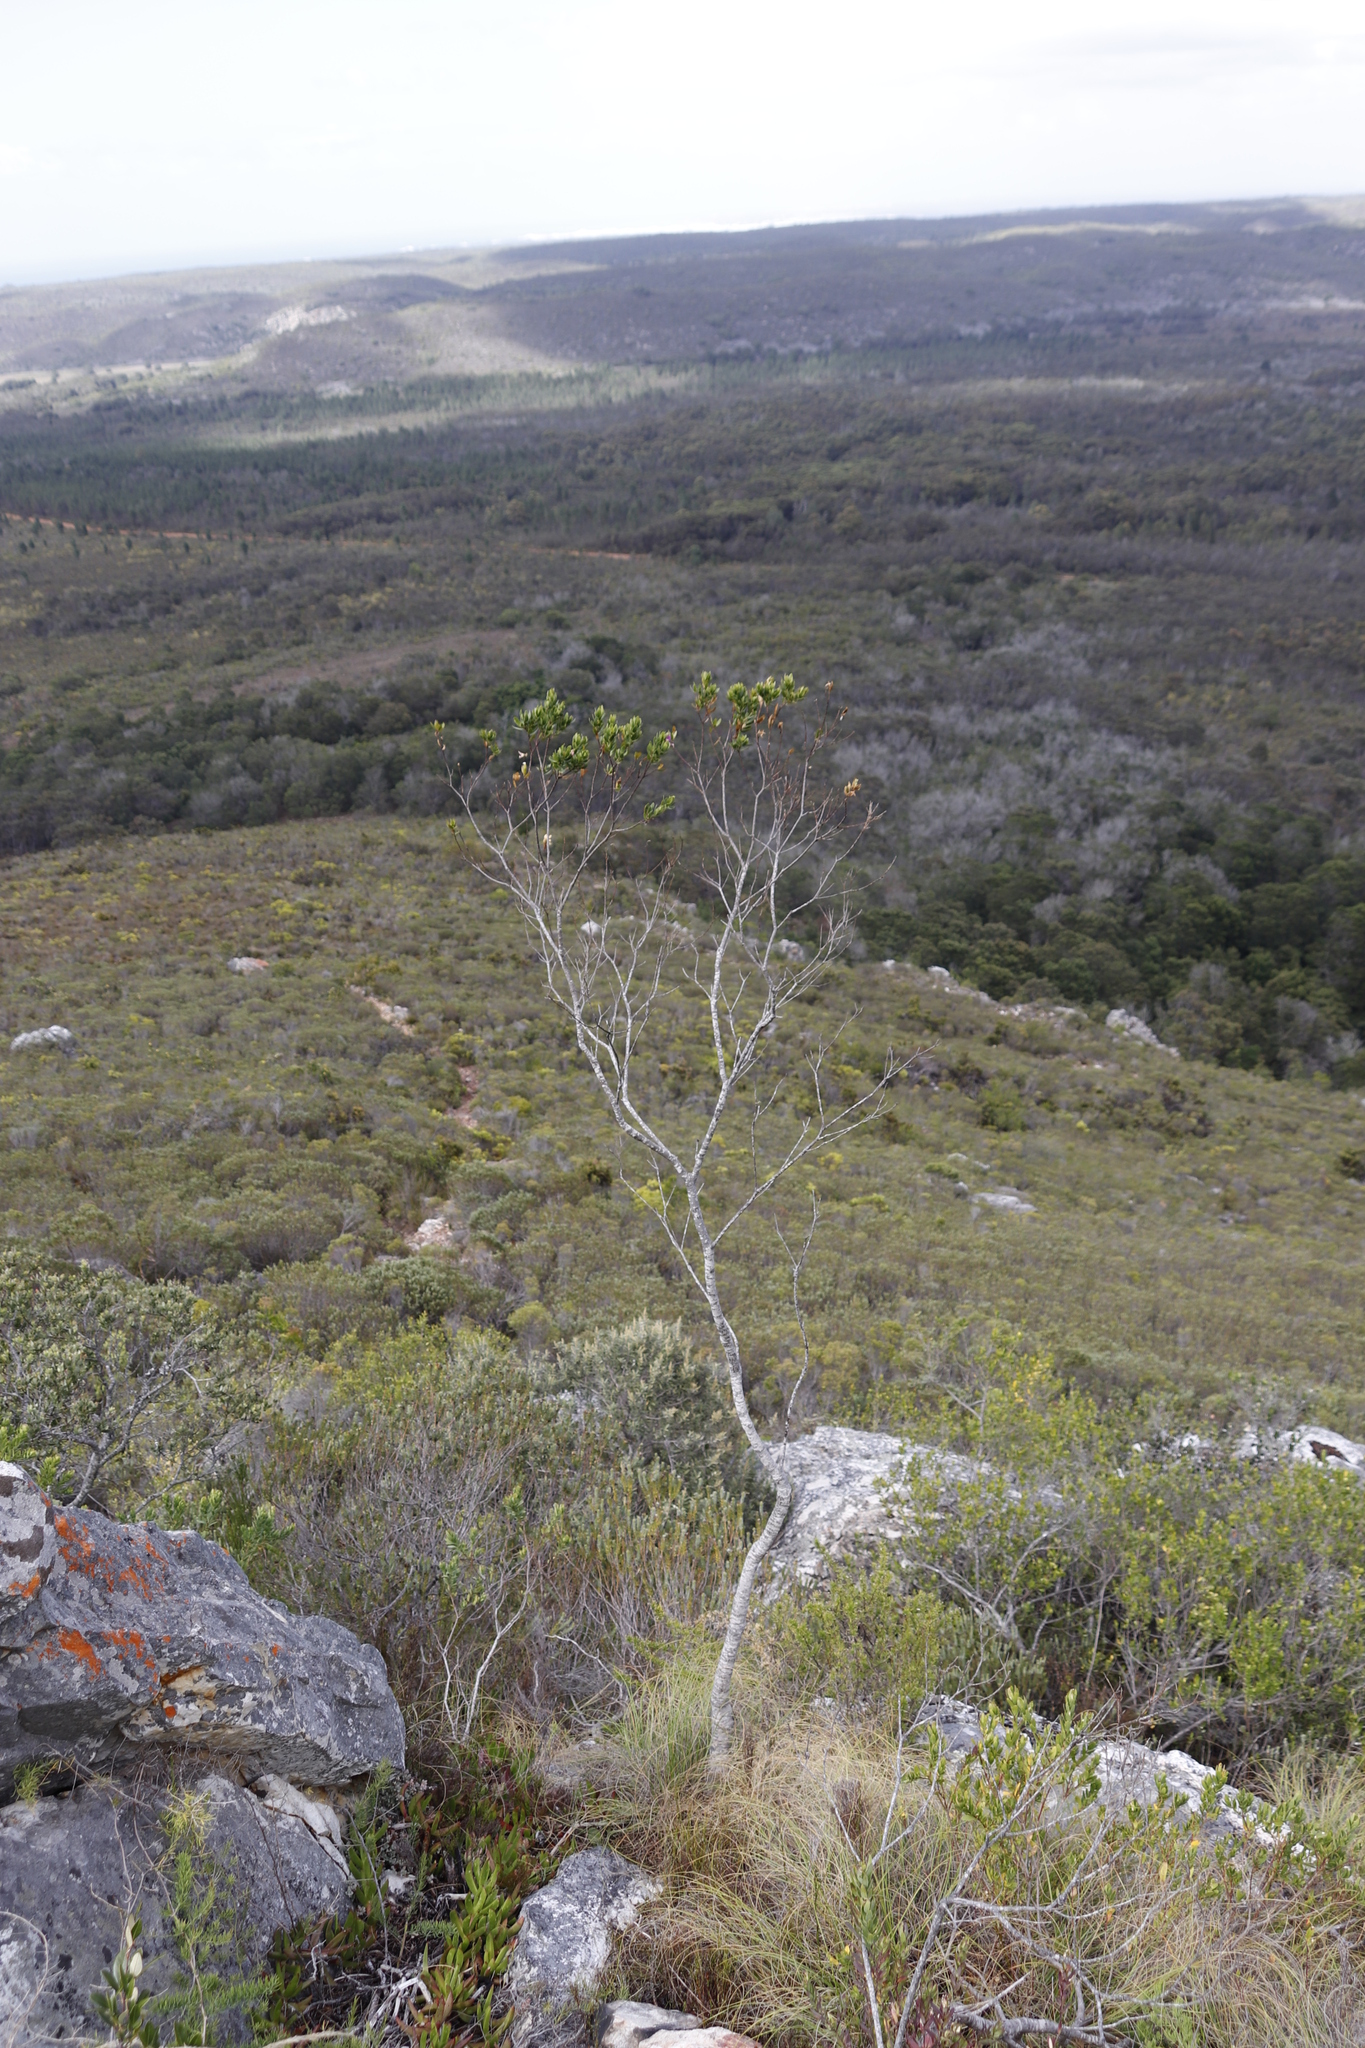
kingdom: Plantae
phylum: Tracheophyta
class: Magnoliopsida
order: Fabales
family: Polygalaceae
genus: Polygala
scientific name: Polygala myrtifolia
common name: Myrtle-leaf milkwort
